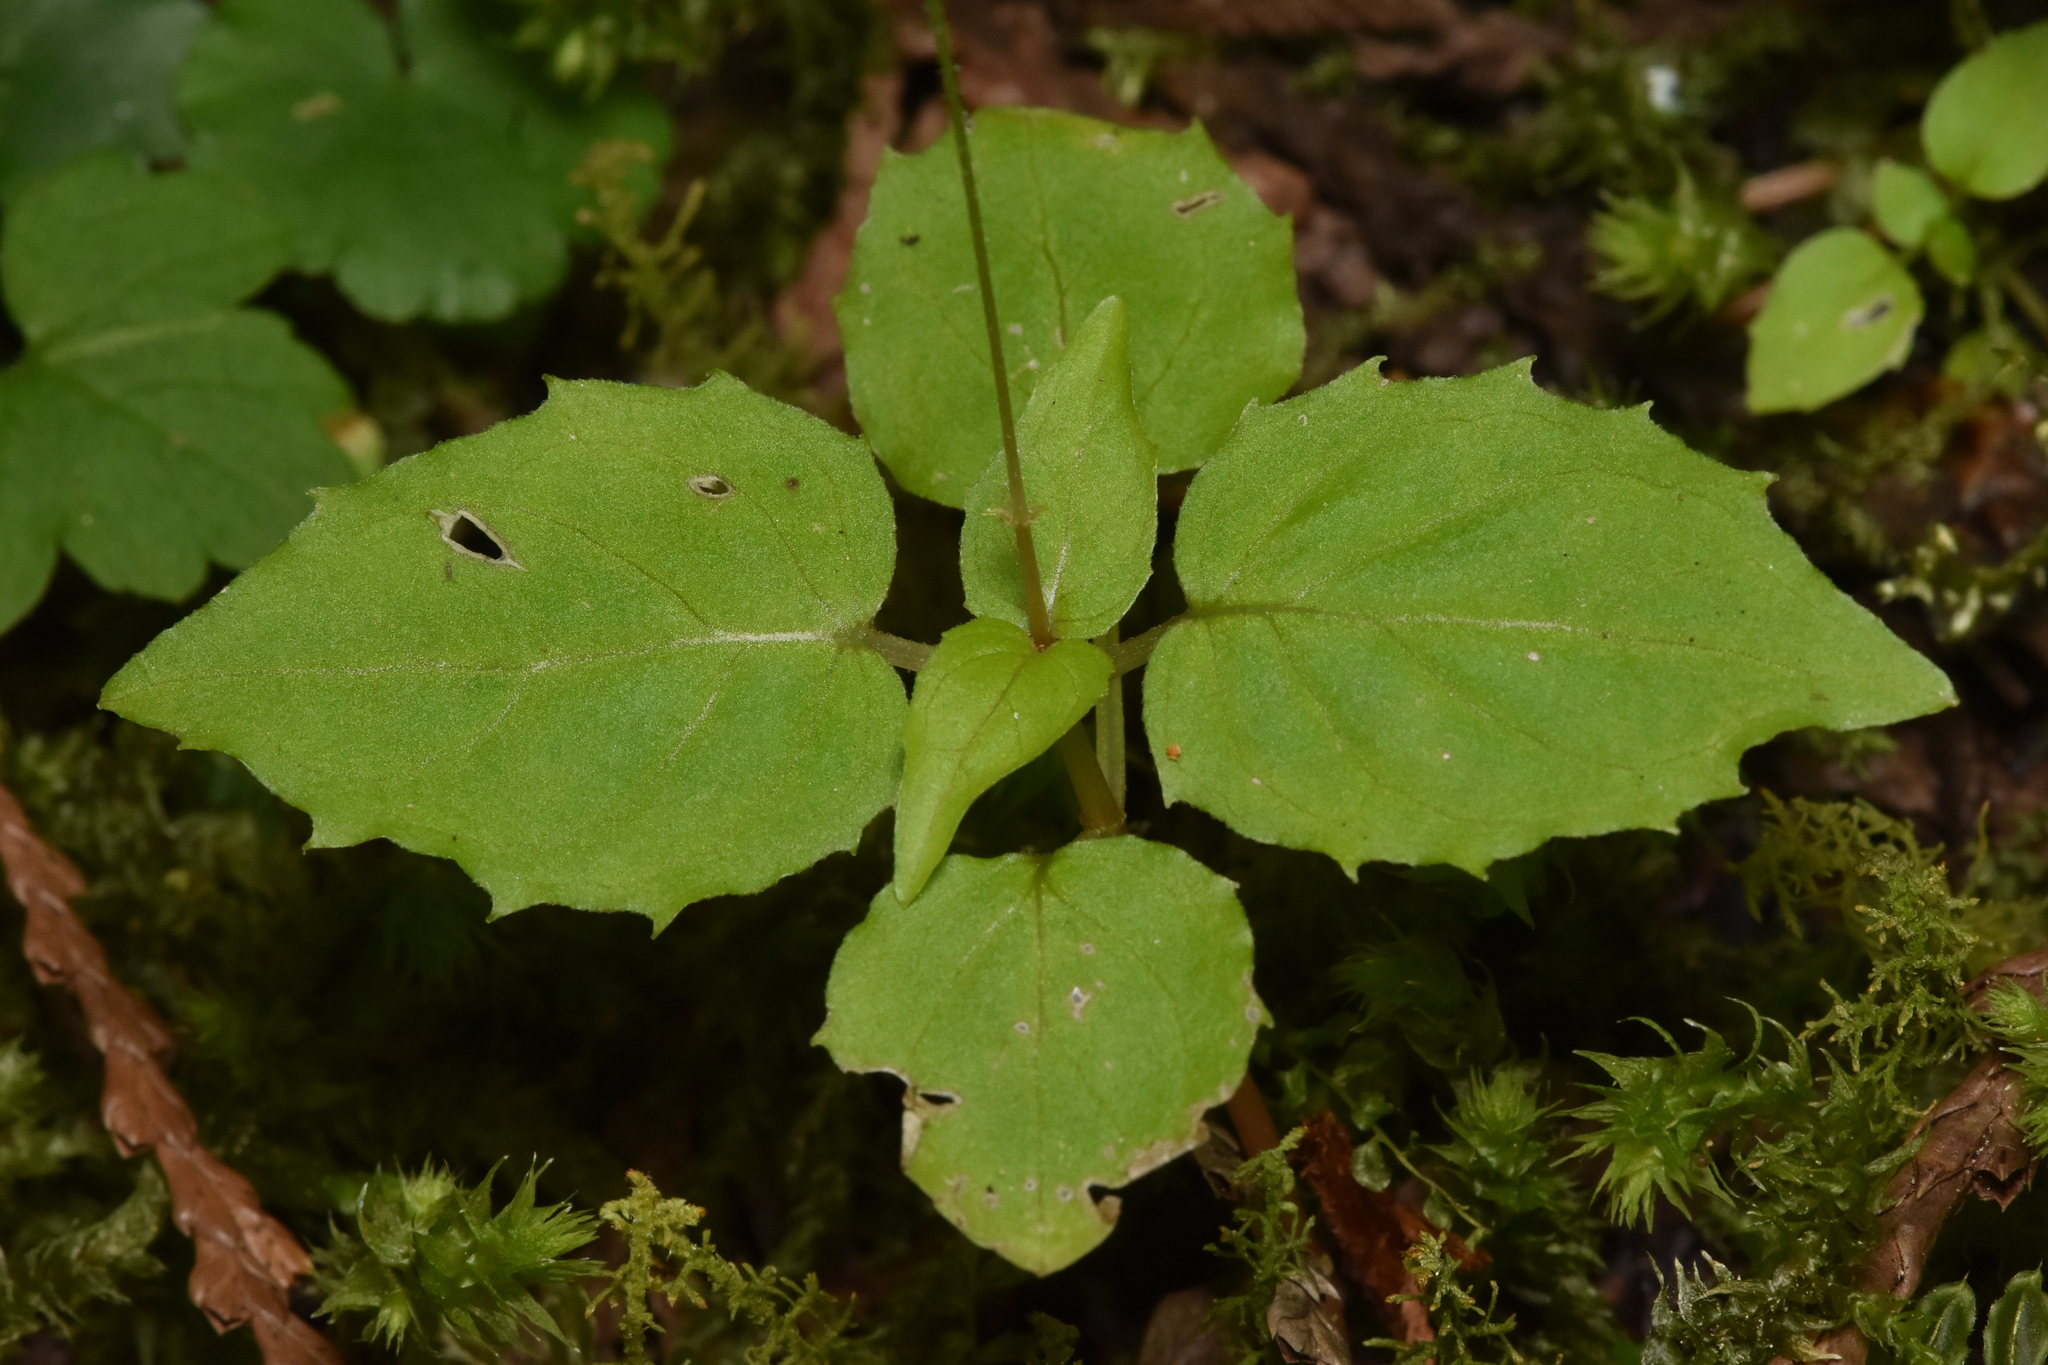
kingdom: Plantae
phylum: Tracheophyta
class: Magnoliopsida
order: Myrtales
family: Onagraceae
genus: Circaea
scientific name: Circaea alpina
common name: Alpine enchanter's-nightshade
